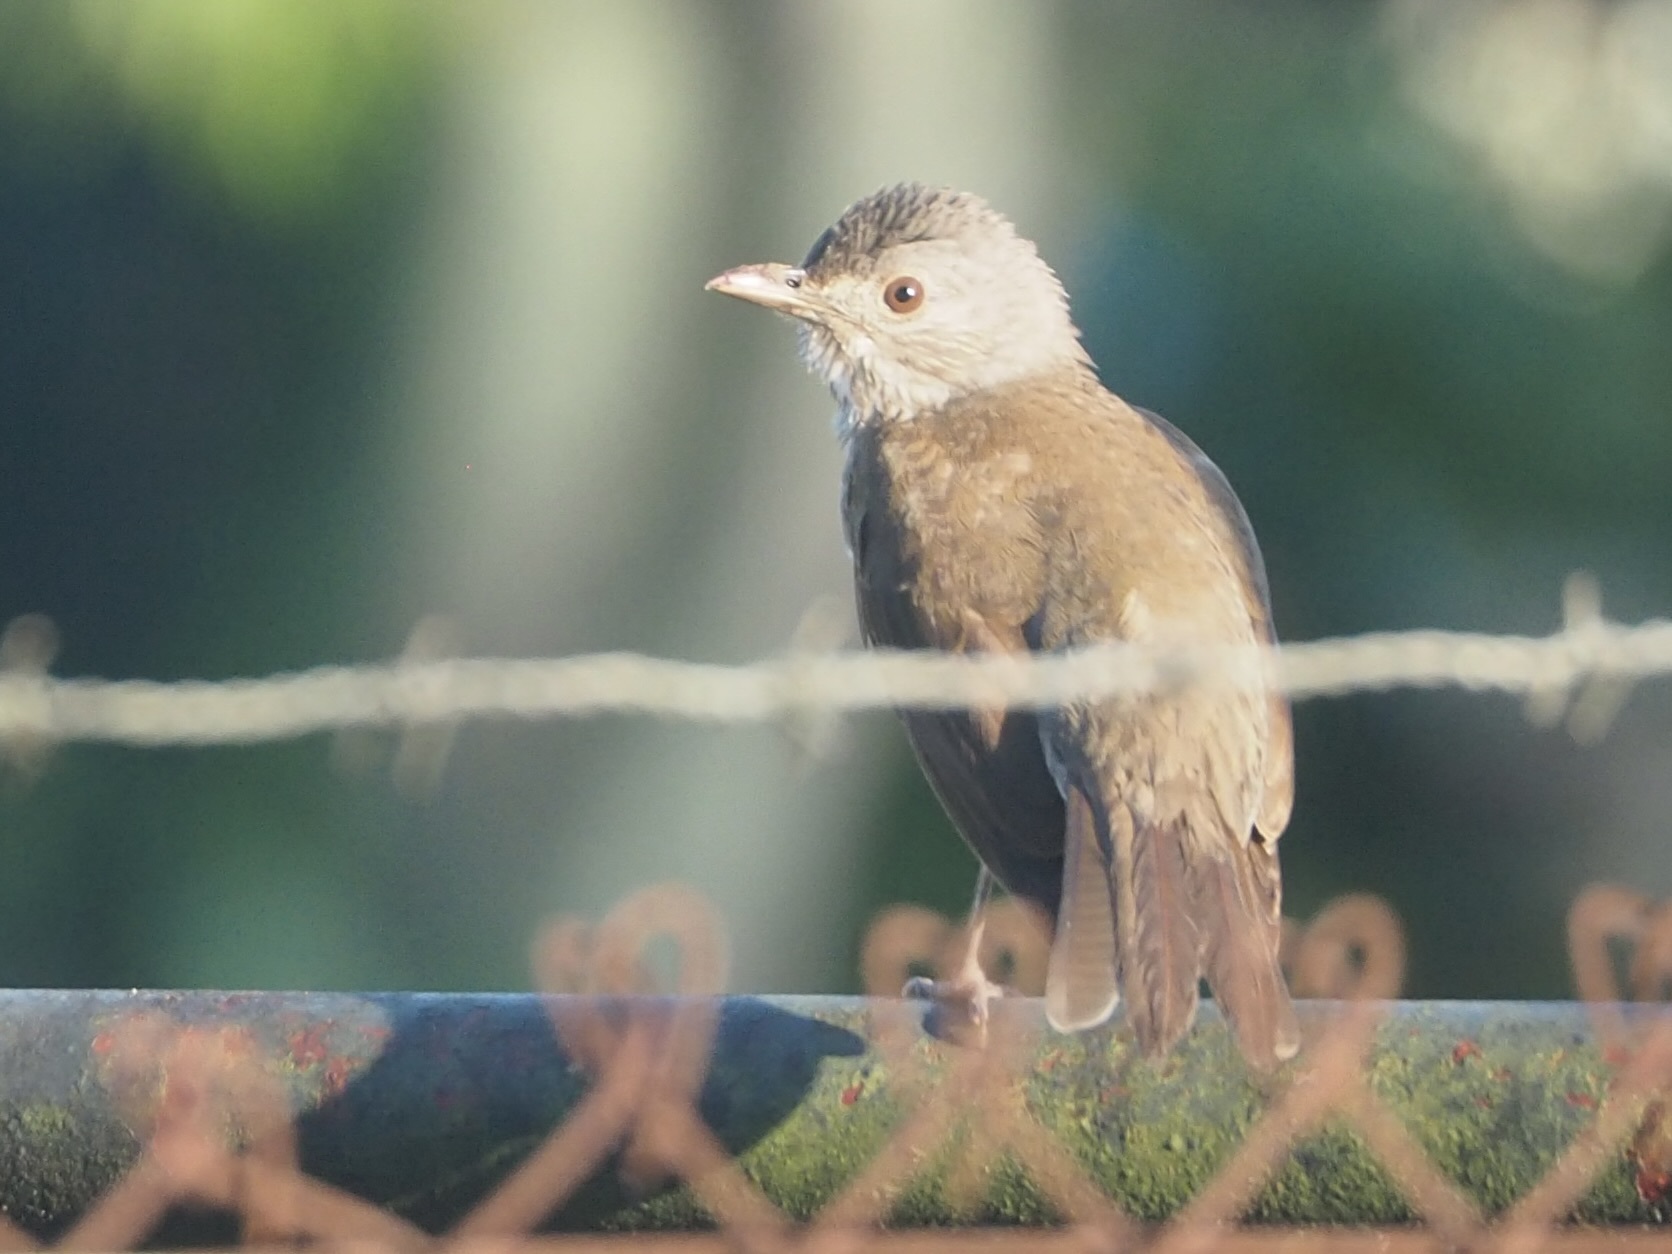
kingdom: Animalia
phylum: Chordata
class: Aves
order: Passeriformes
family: Turdidae
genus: Turdus
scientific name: Turdus leucomelas
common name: Pale-breasted thrush
